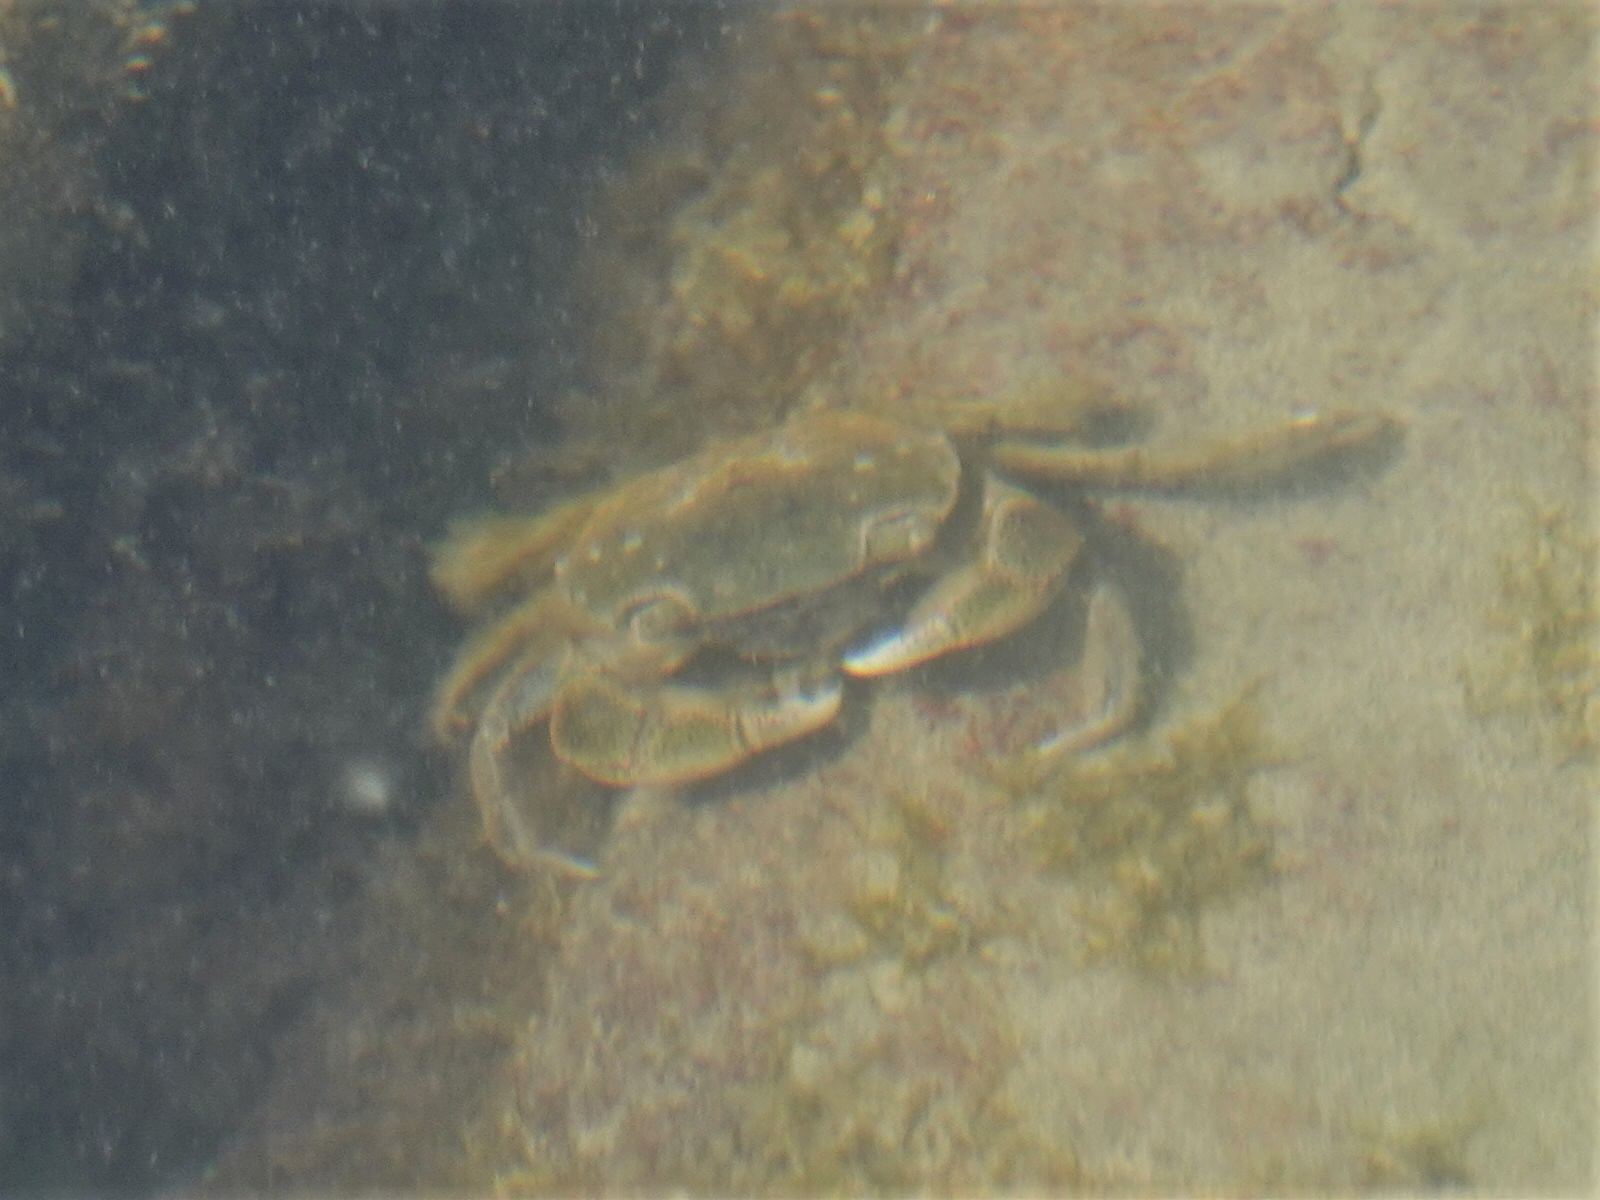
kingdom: Animalia
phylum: Arthropoda
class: Malacostraca
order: Decapoda
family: Varunidae
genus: Hemigrapsus
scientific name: Hemigrapsus crenulatus
